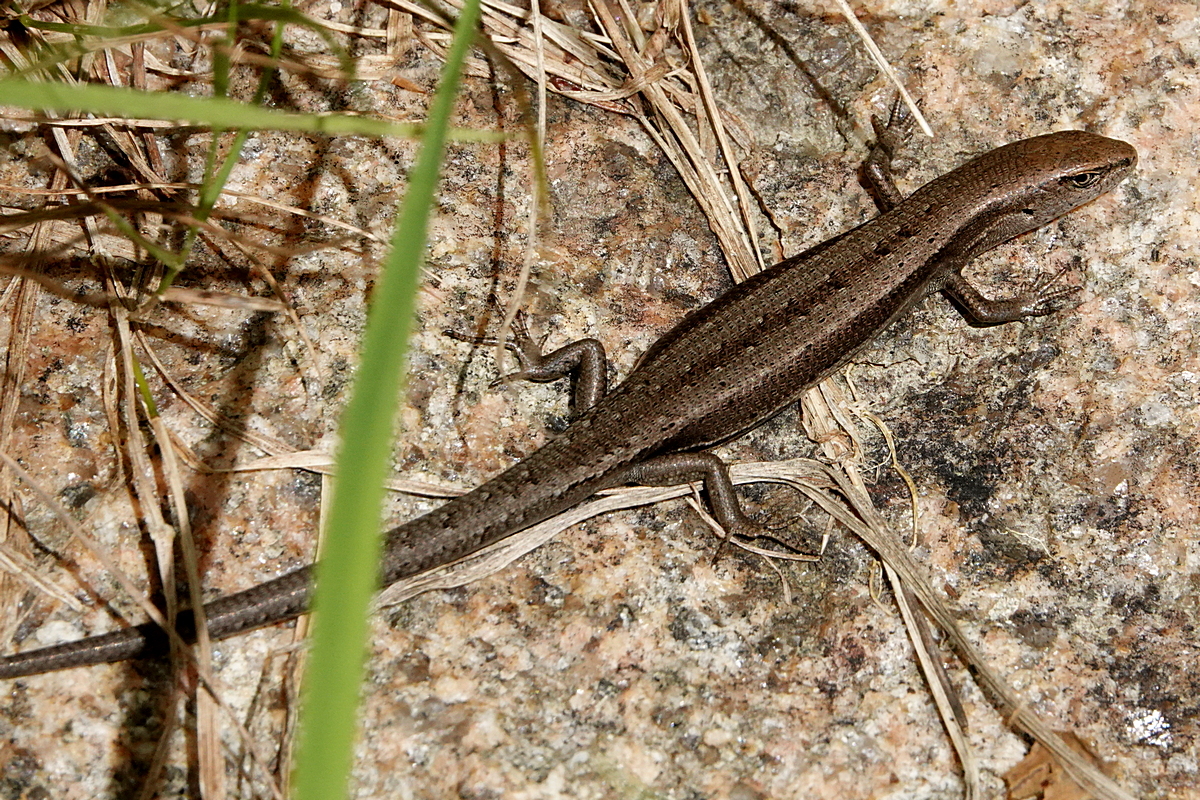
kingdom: Animalia
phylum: Chordata
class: Squamata
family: Scincidae
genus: Lampropholis
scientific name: Lampropholis guichenoti
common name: Garden skink
